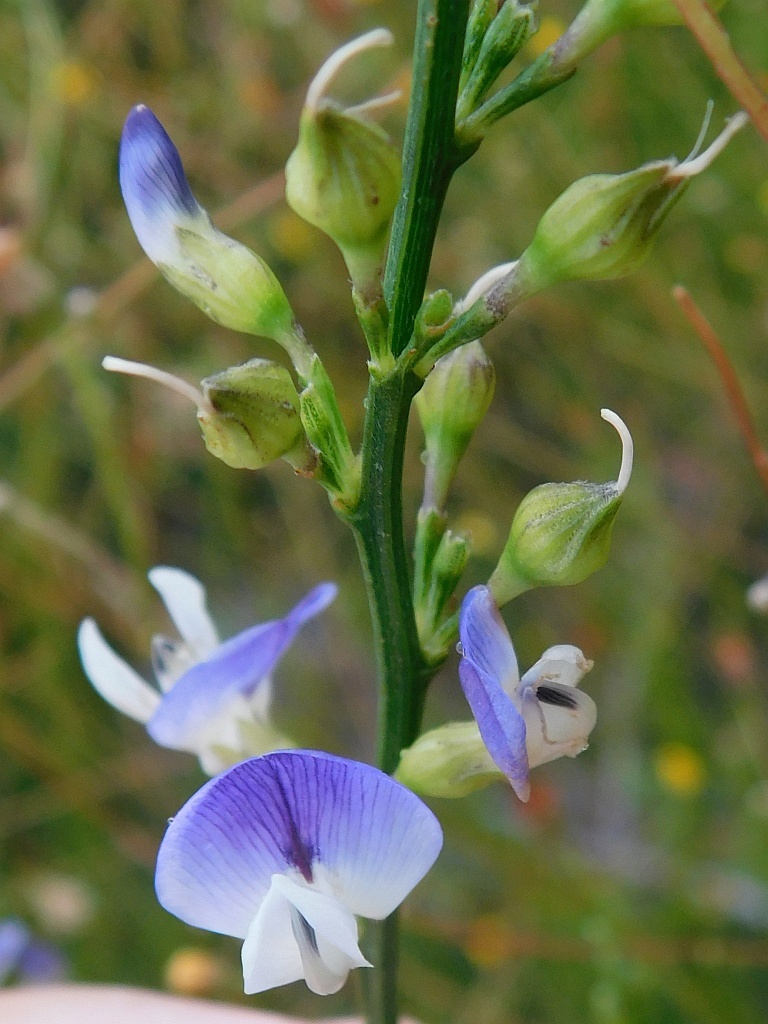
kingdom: Plantae
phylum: Tracheophyta
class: Magnoliopsida
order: Fabales
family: Fabaceae
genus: Psoralea
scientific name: Psoralea usitata
